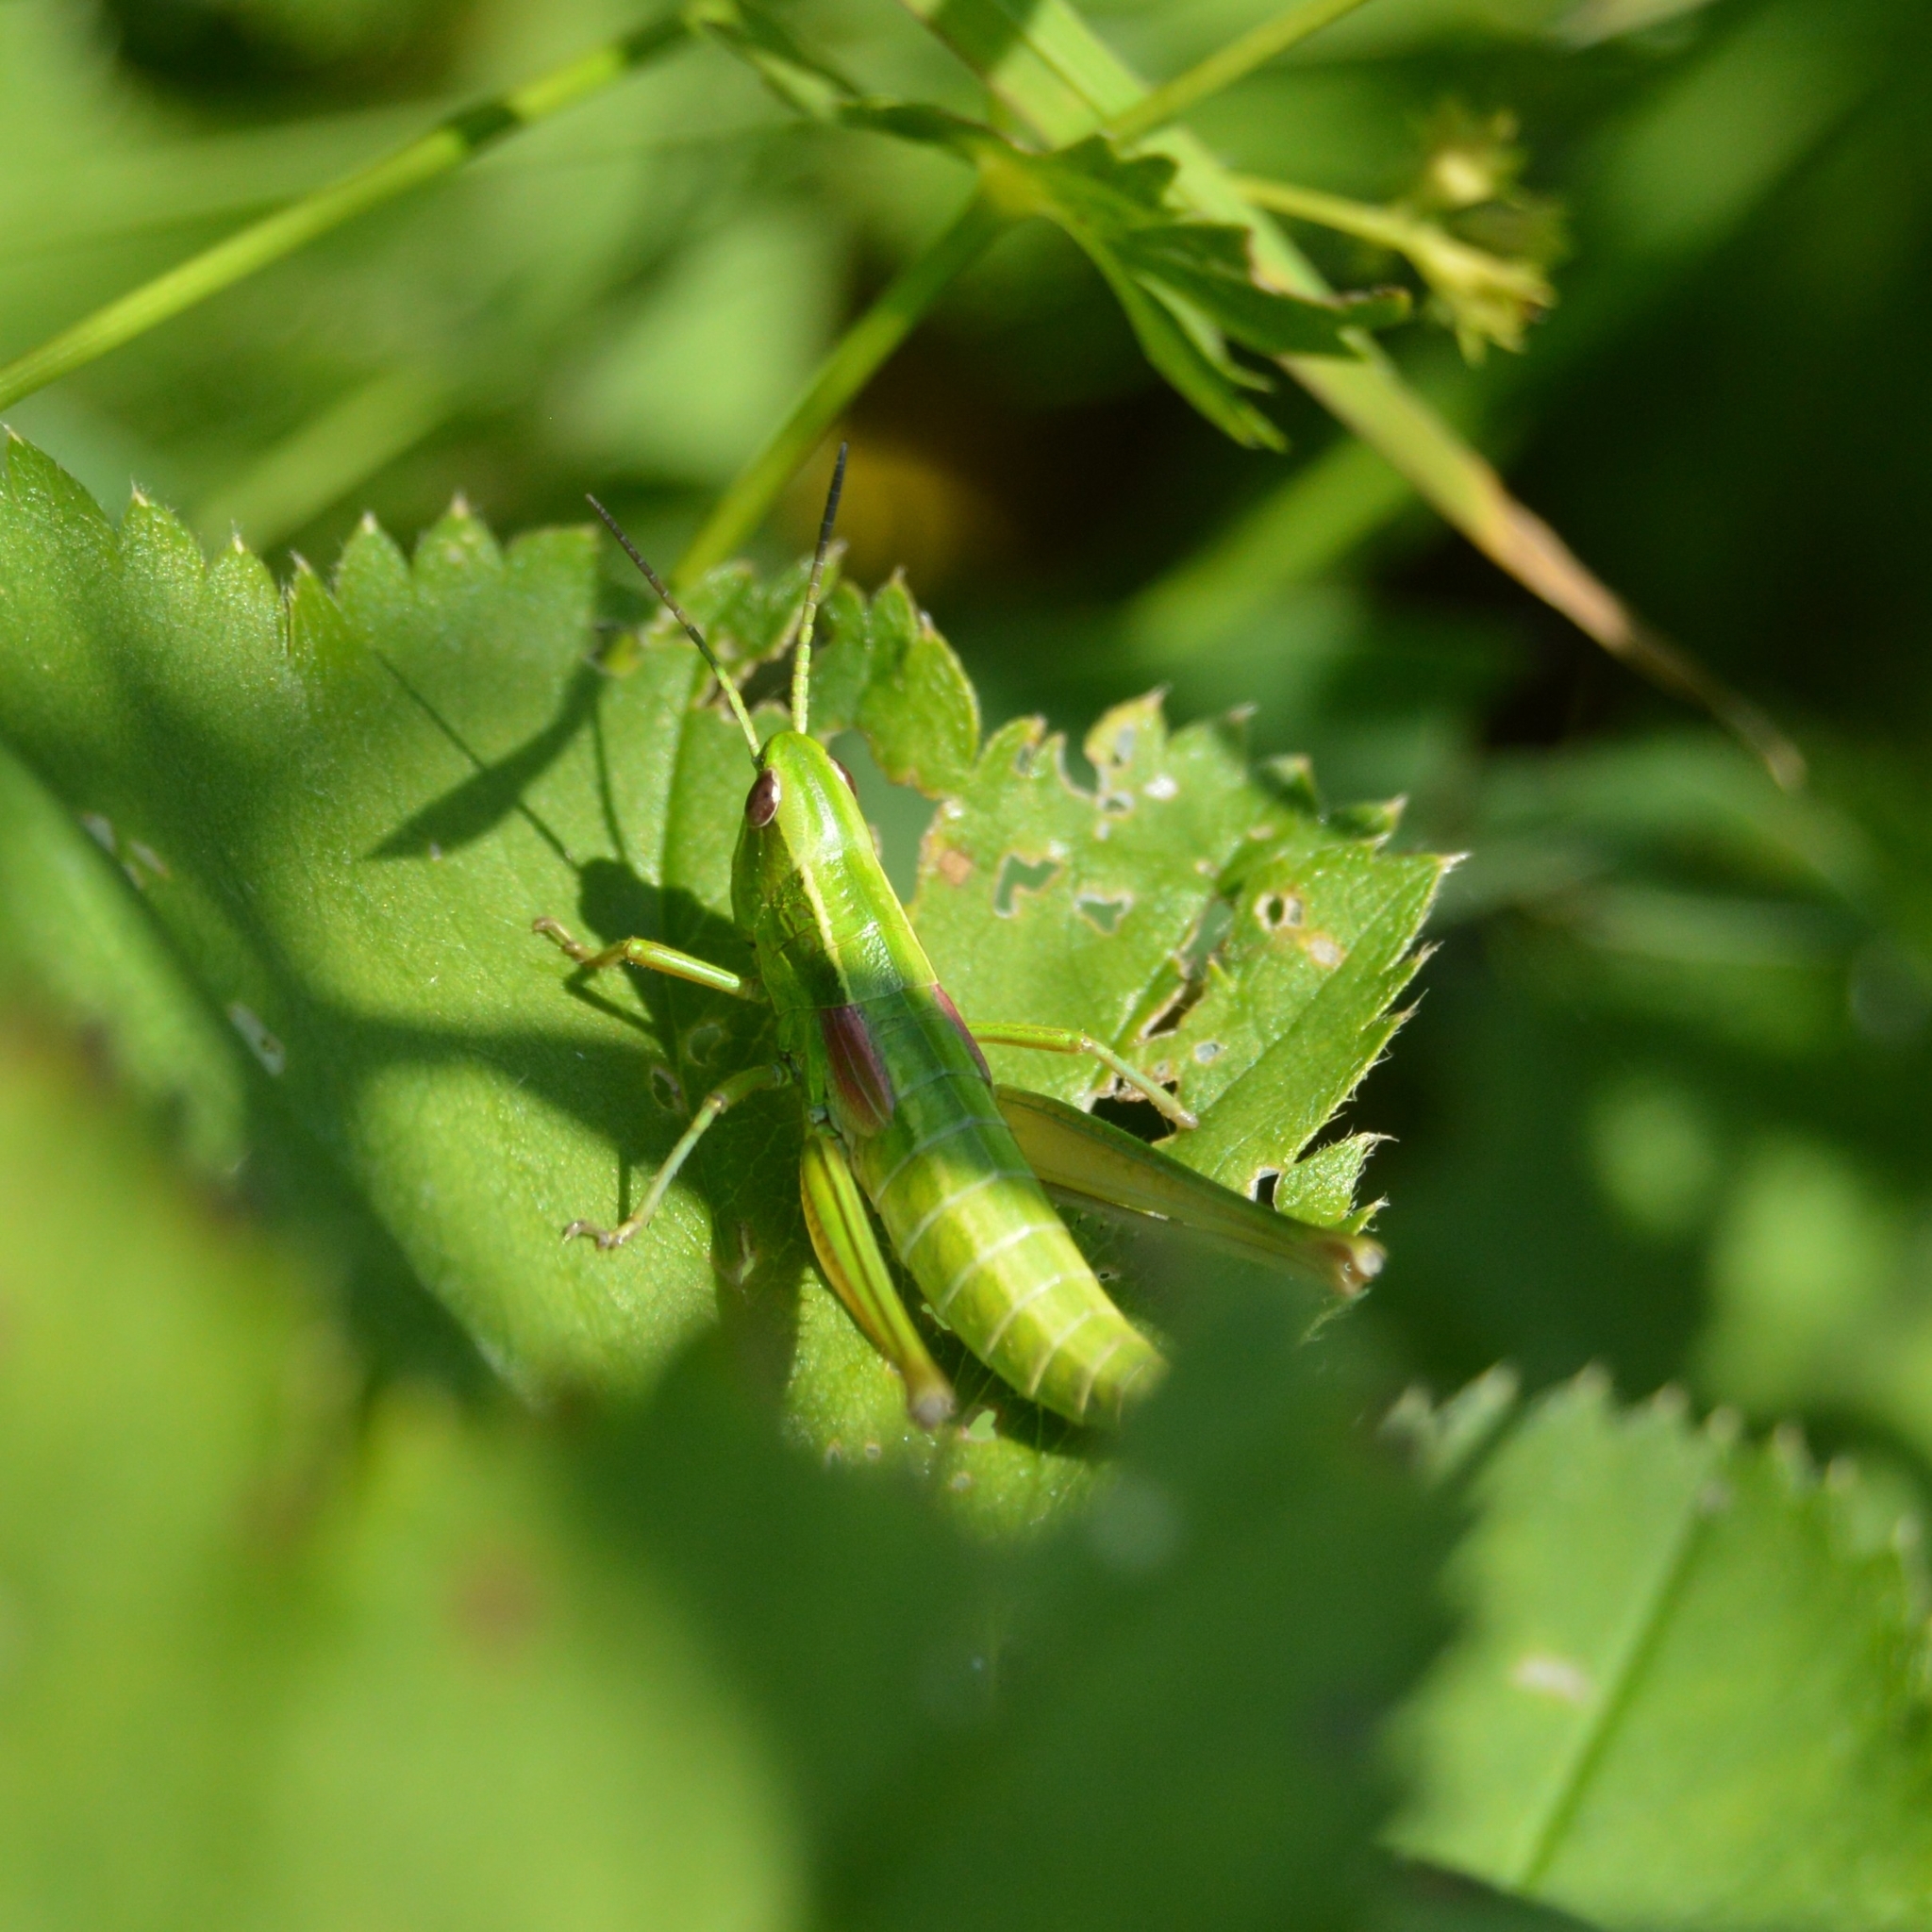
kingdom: Animalia
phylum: Arthropoda
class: Insecta
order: Orthoptera
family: Acrididae
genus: Euthystira
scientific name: Euthystira brachyptera
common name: Small gold grasshopper
